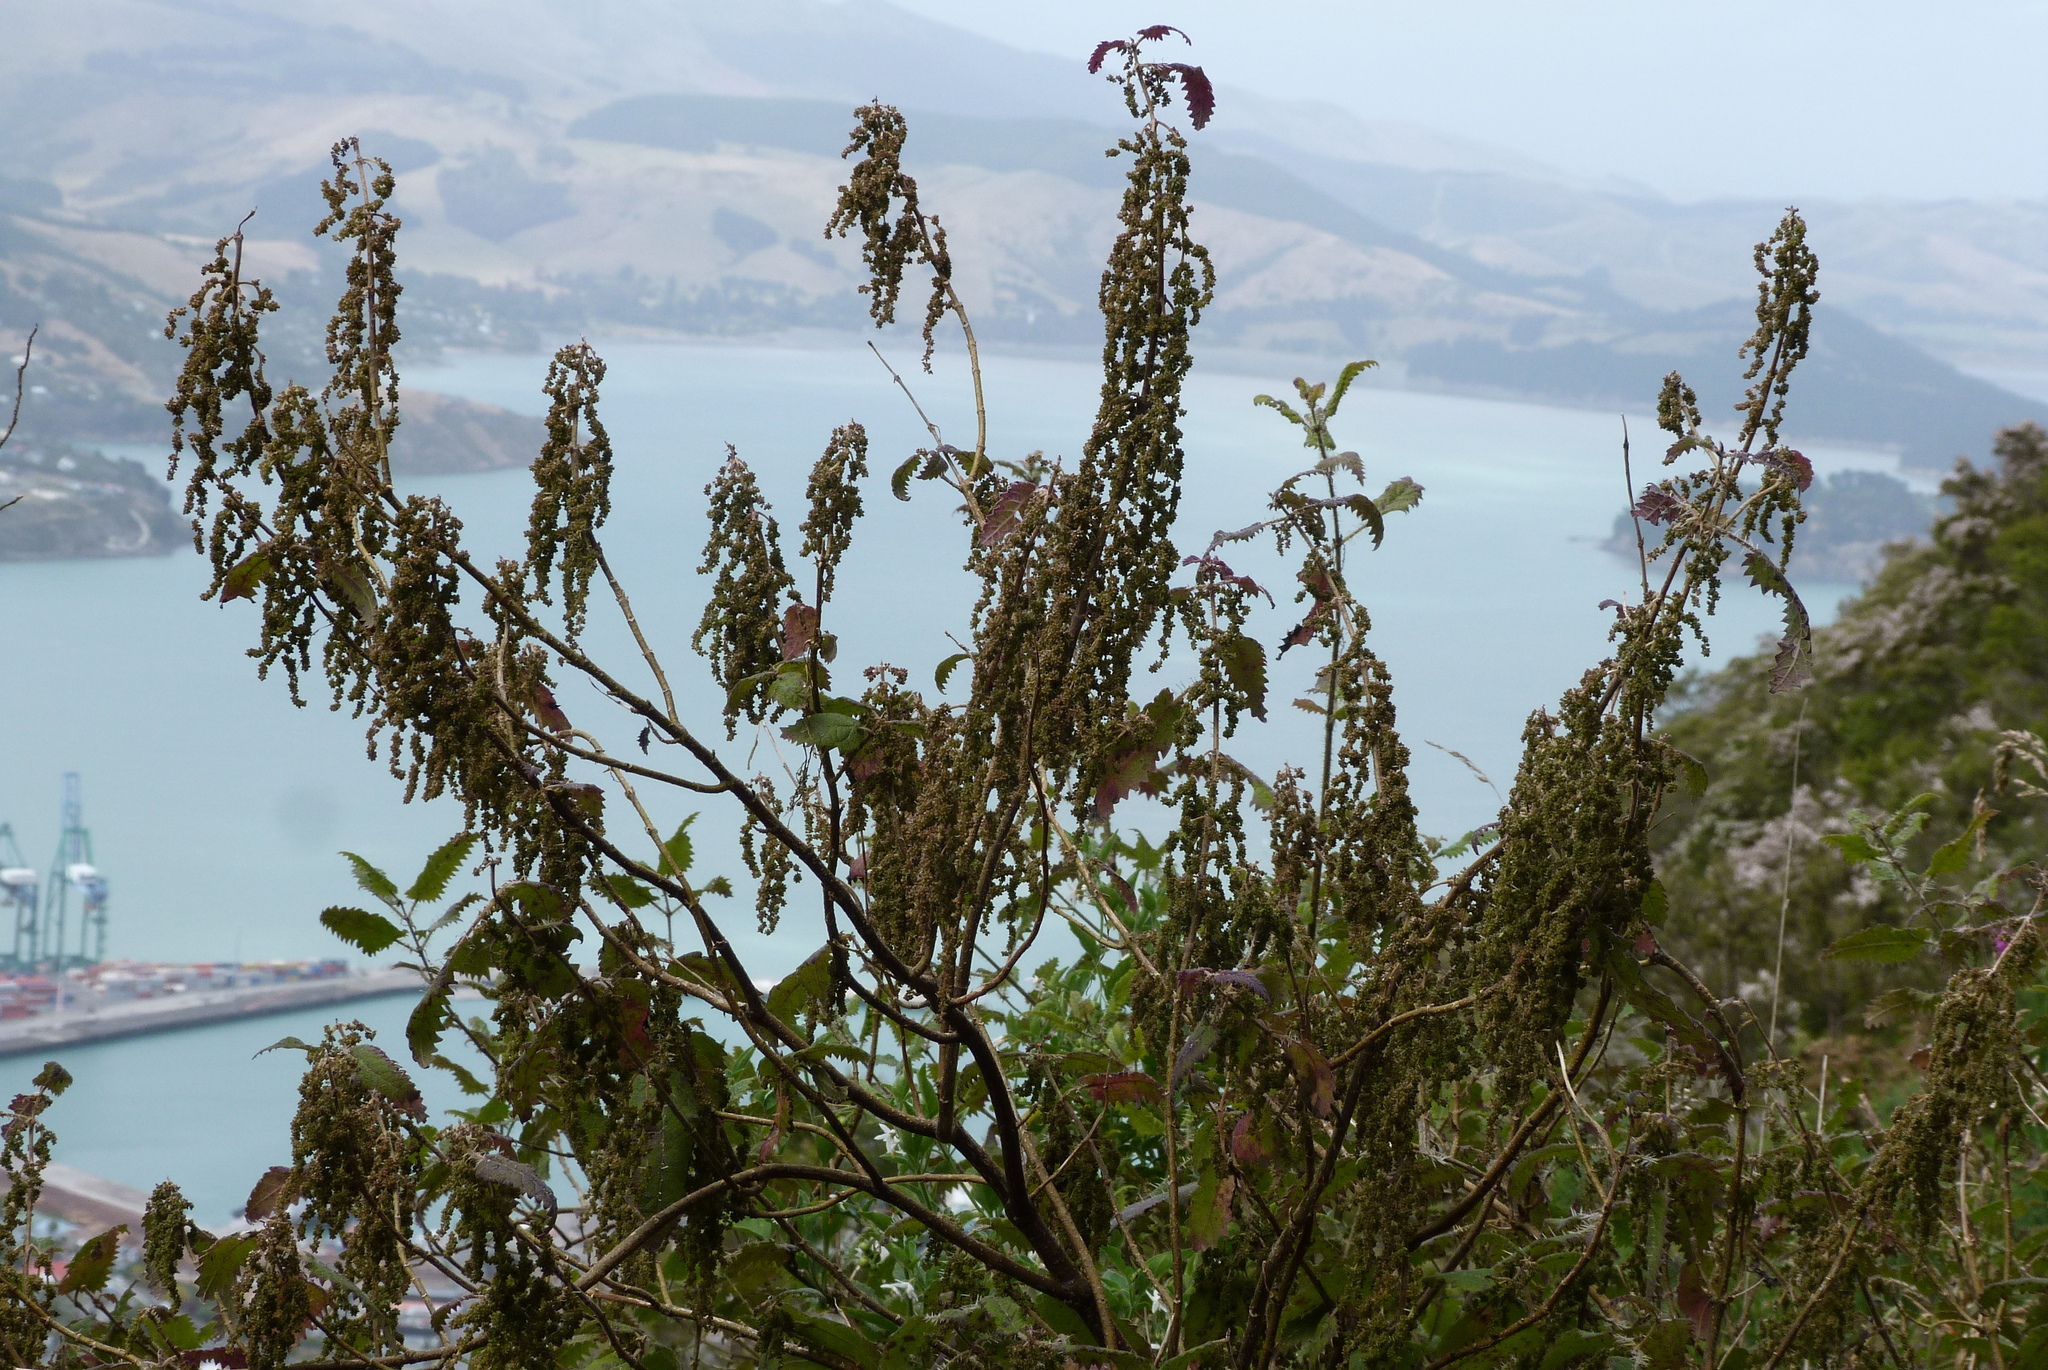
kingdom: Plantae
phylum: Tracheophyta
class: Magnoliopsida
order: Rosales
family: Urticaceae
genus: Urtica
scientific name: Urtica ferox
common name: Tree nettle
